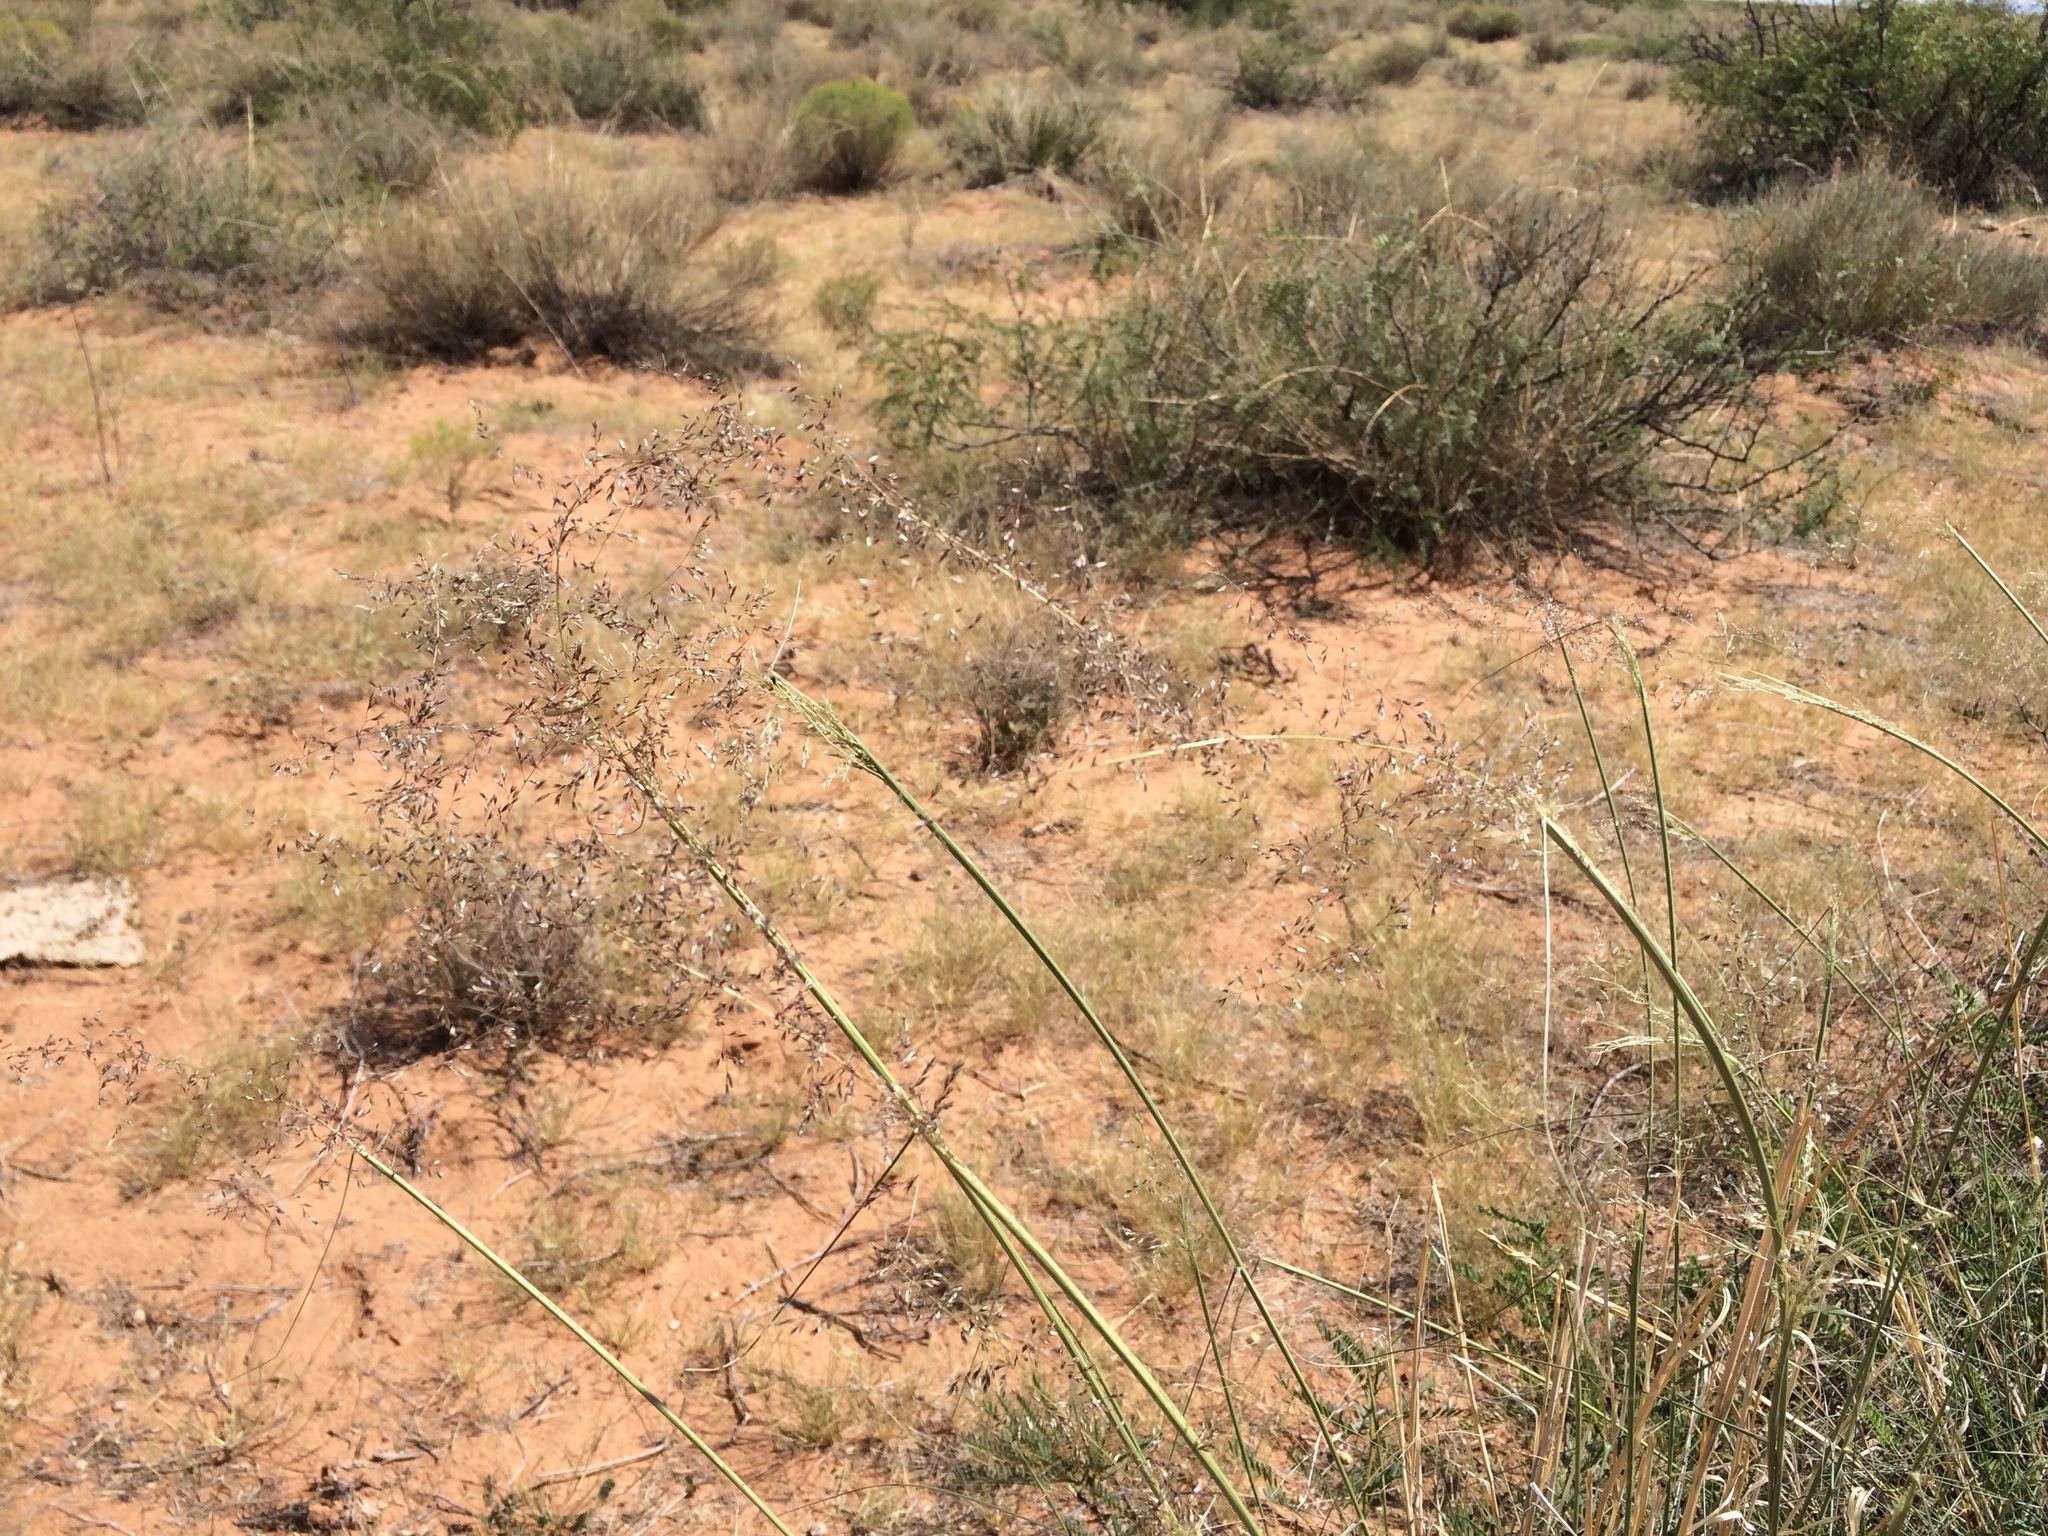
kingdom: Plantae
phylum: Tracheophyta
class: Liliopsida
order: Poales
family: Poaceae
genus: Sporobolus
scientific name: Sporobolus flexuosus
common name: Mesa dropseed
